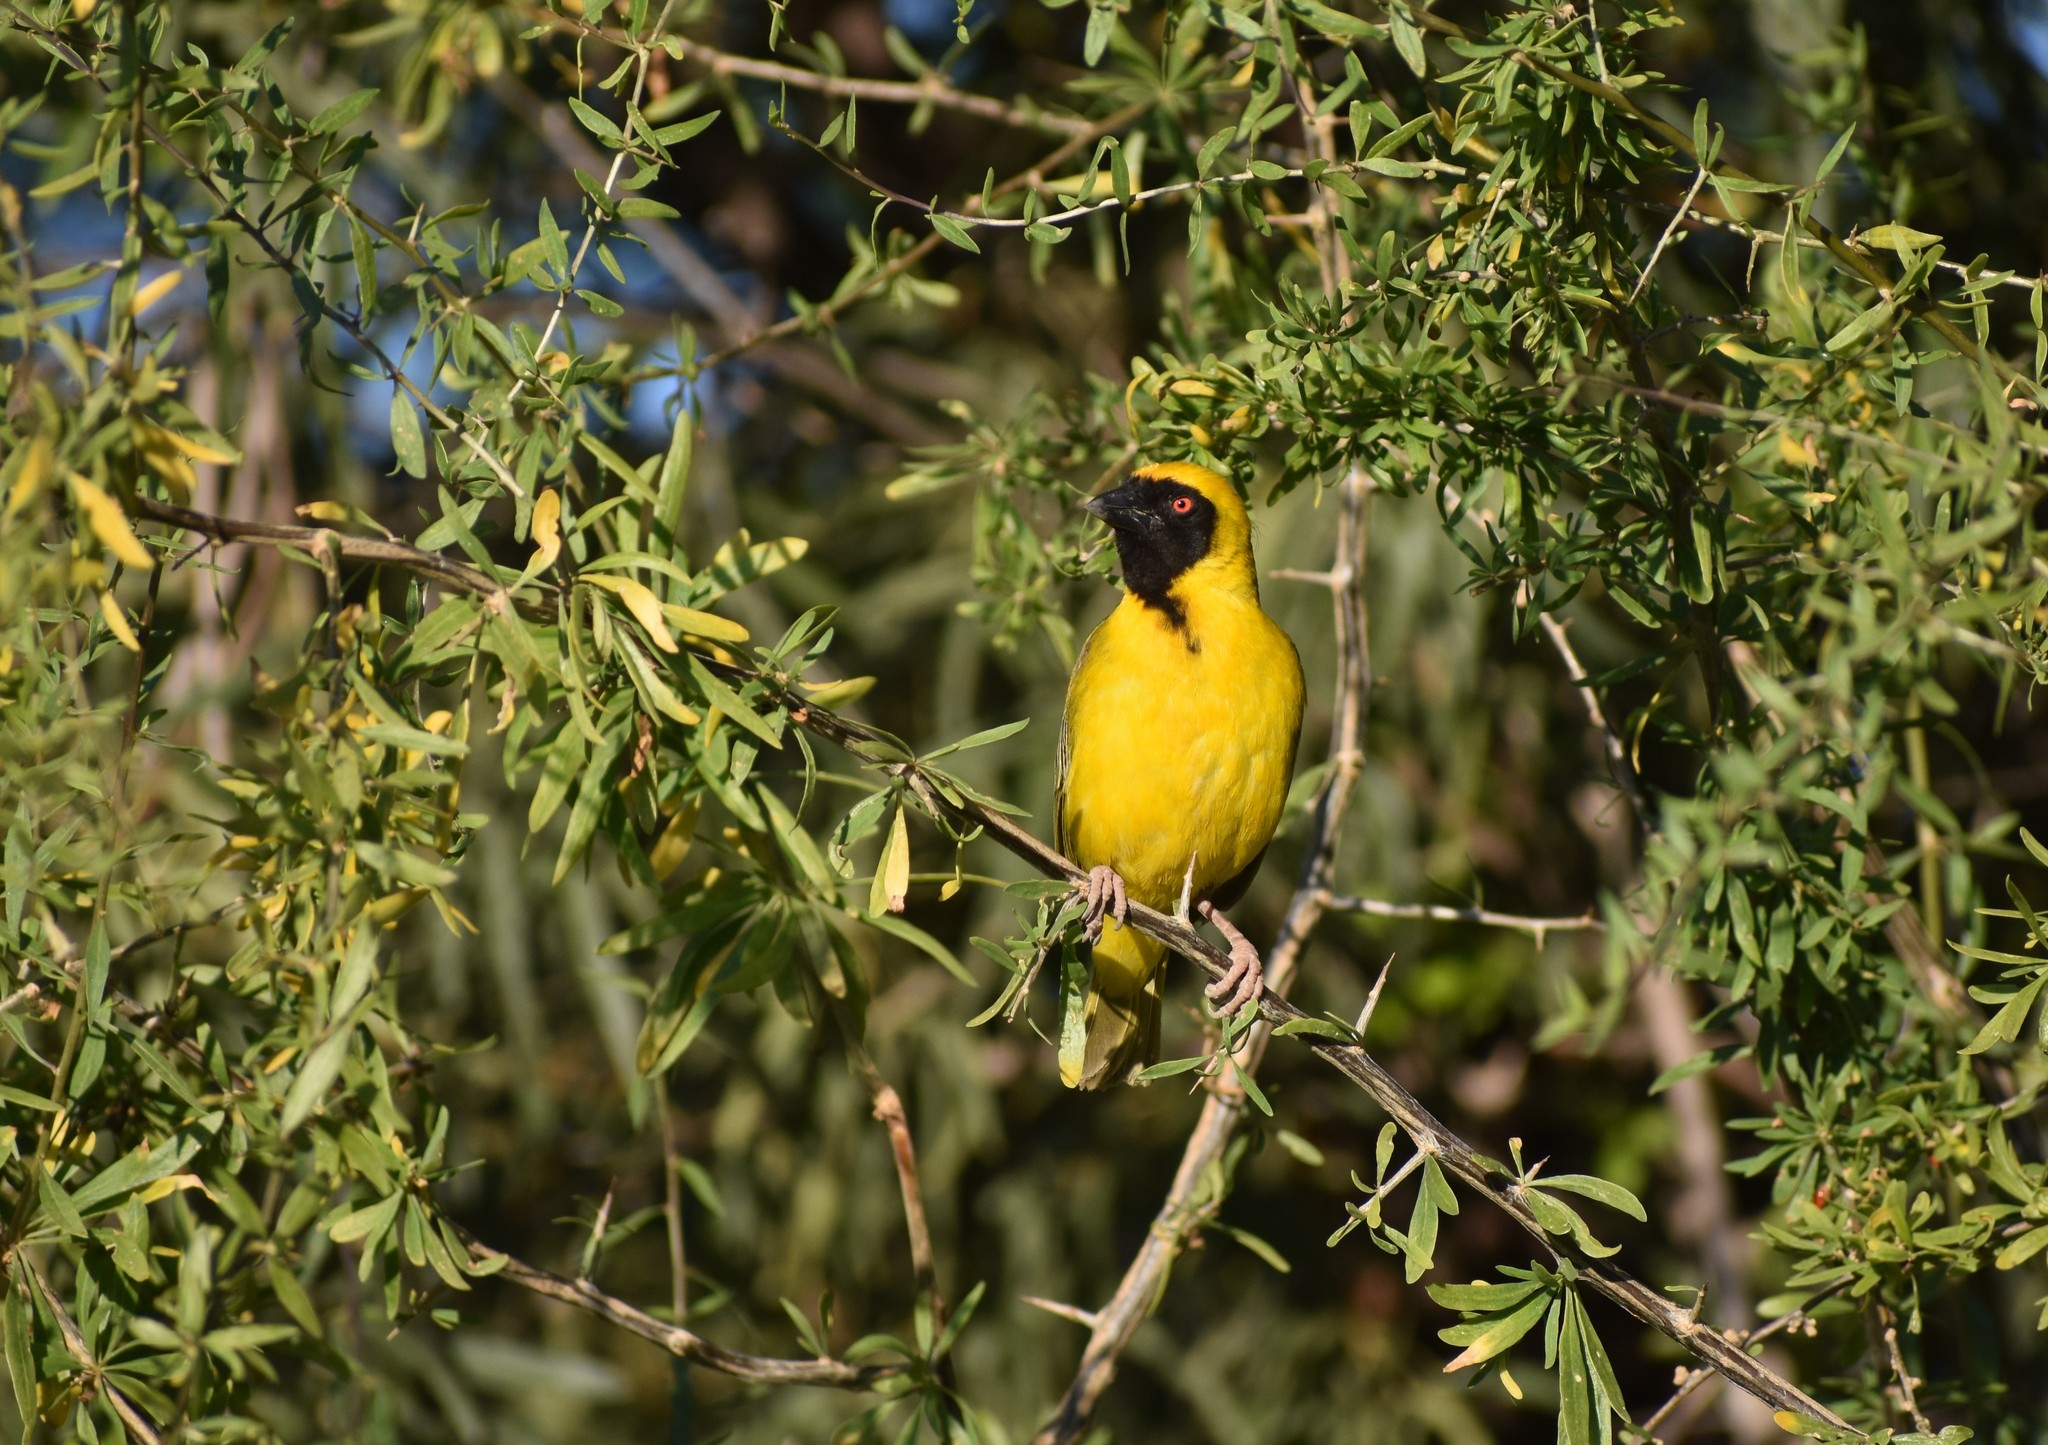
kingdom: Animalia
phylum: Chordata
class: Aves
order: Passeriformes
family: Ploceidae
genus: Ploceus
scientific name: Ploceus velatus
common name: Southern masked weaver
